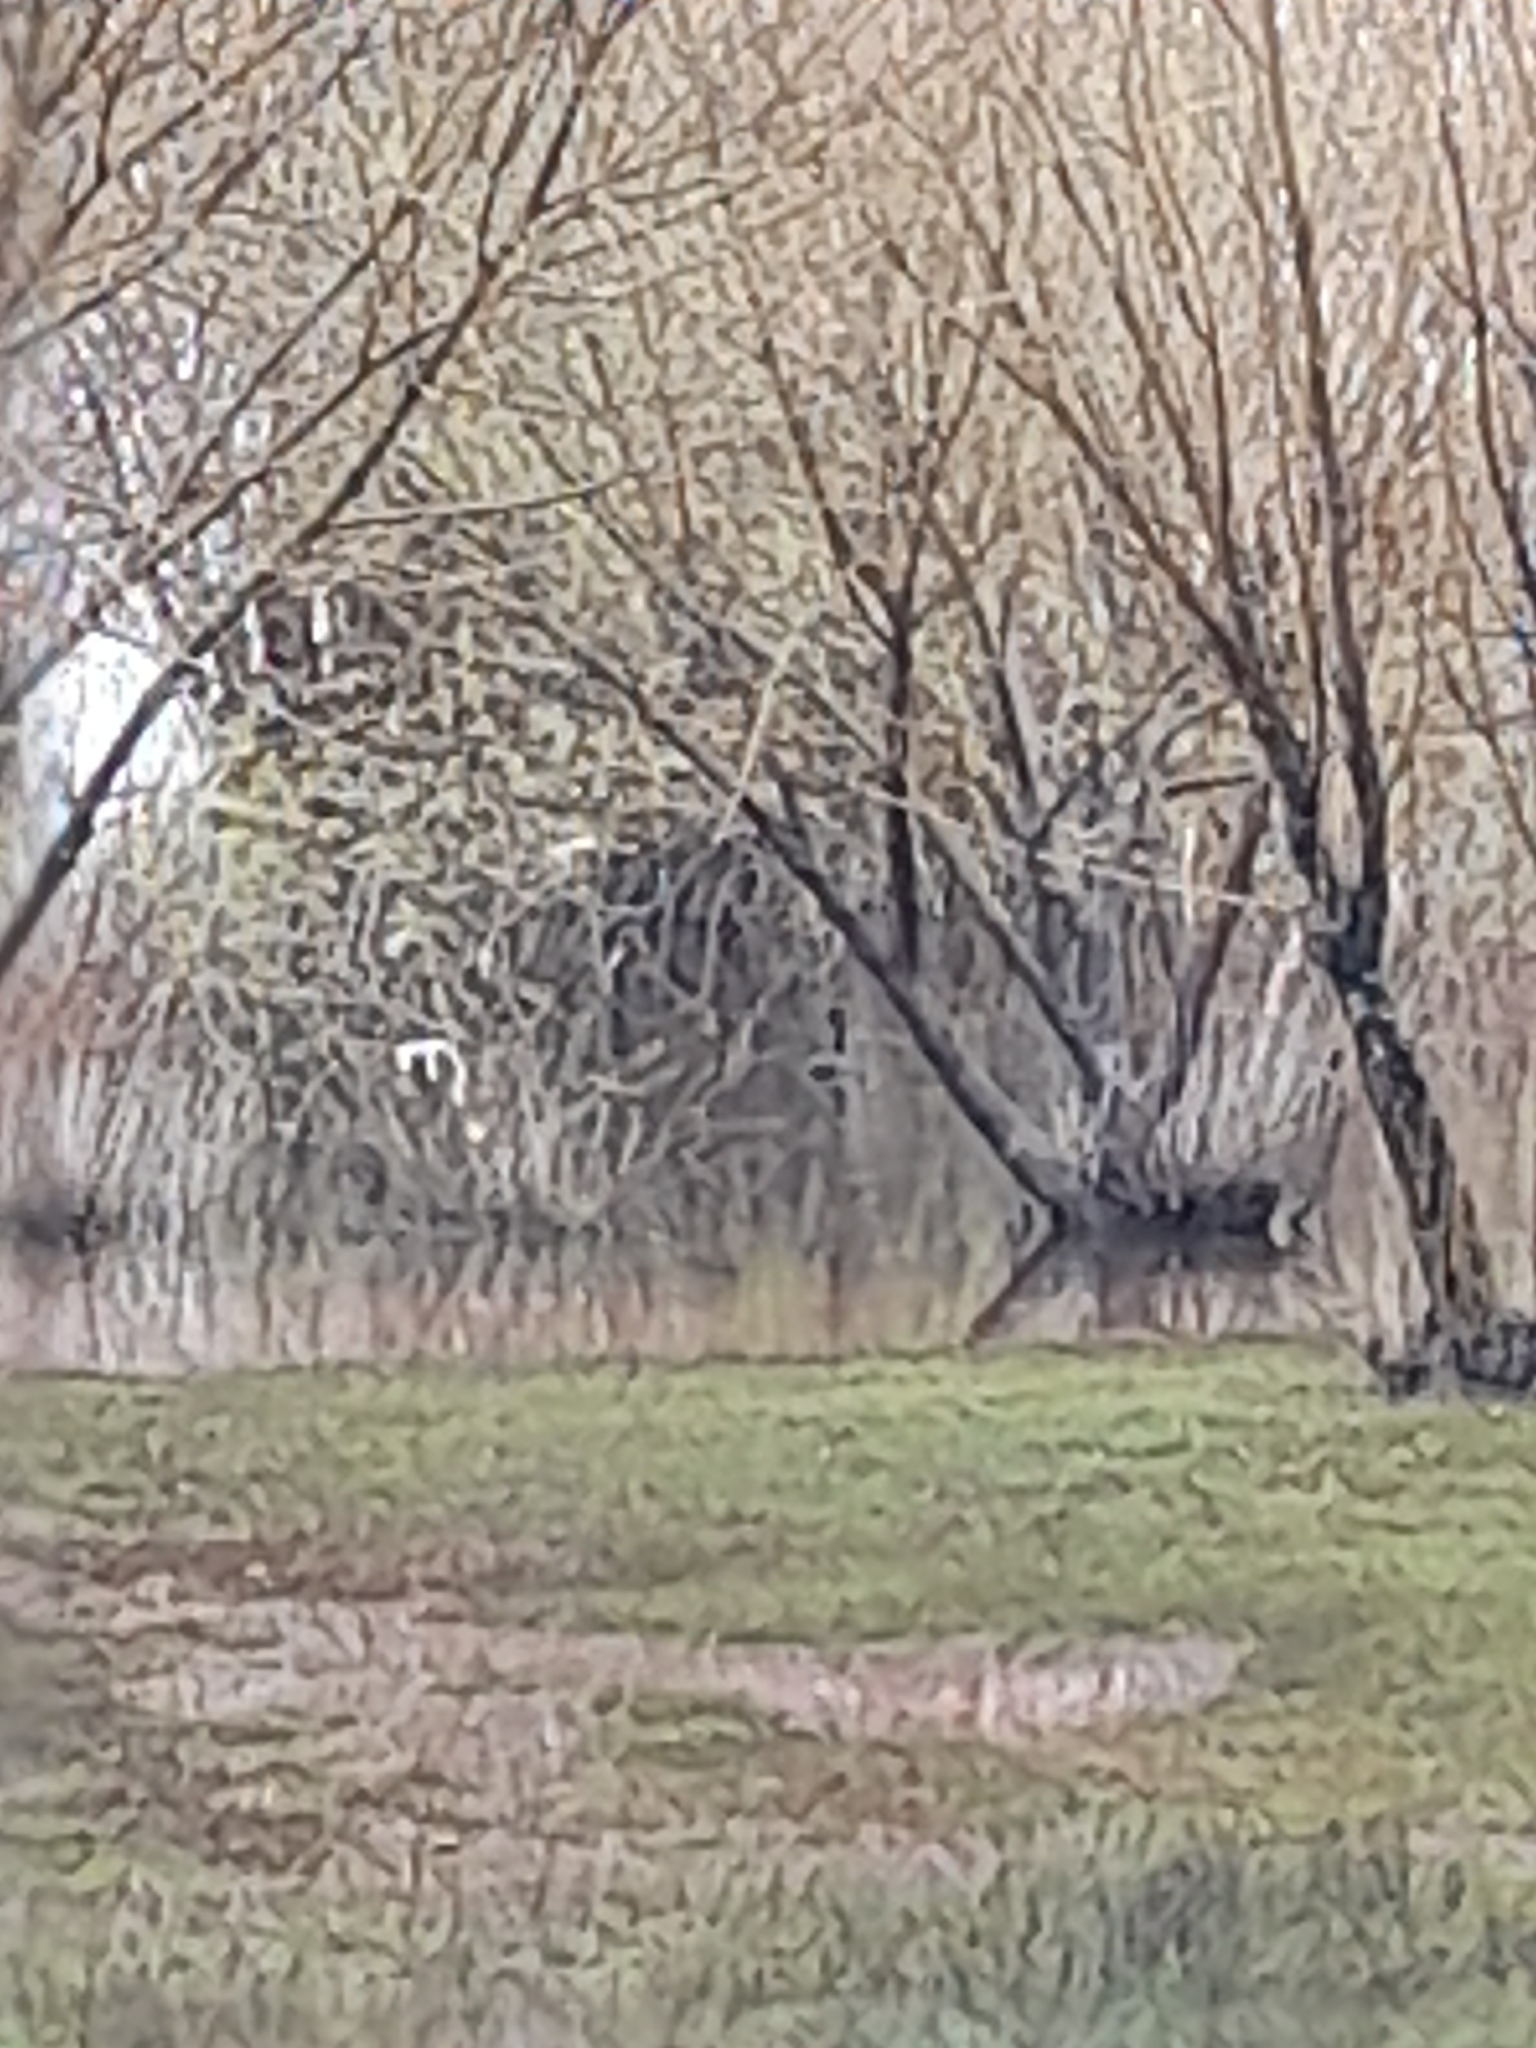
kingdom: Animalia
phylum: Chordata
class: Aves
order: Podicipediformes
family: Podicipedidae
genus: Podiceps
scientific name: Podiceps major
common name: Great grebe
